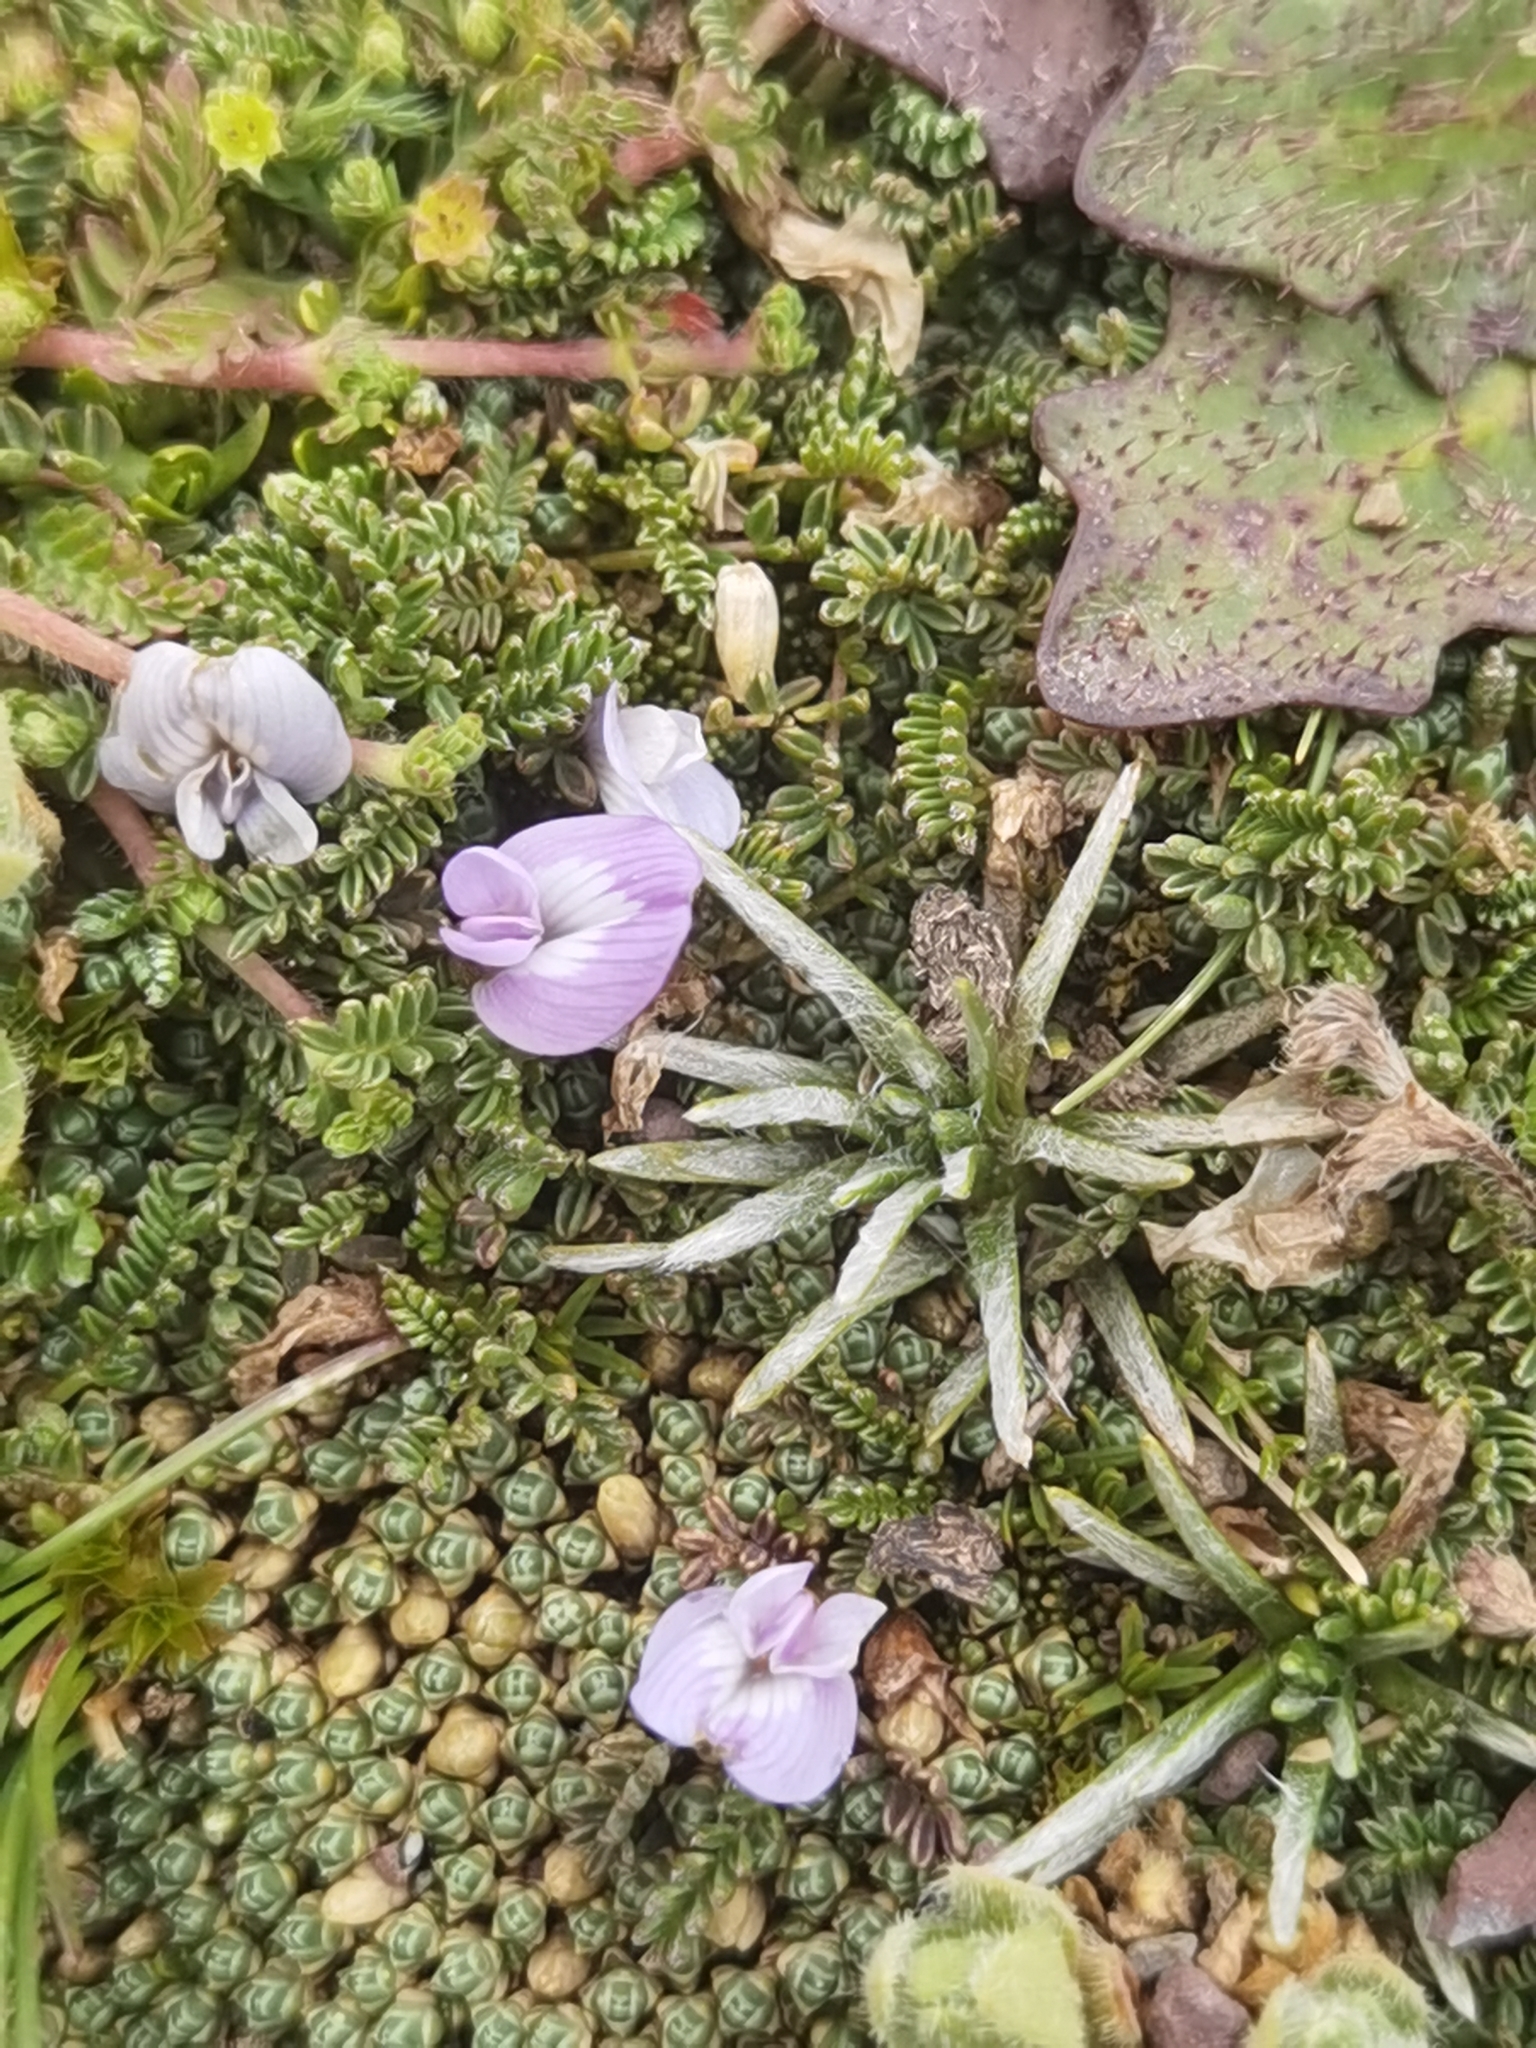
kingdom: Plantae
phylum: Tracheophyta
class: Magnoliopsida
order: Fabales
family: Fabaceae
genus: Astragalus
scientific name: Astragalus peruvianus
